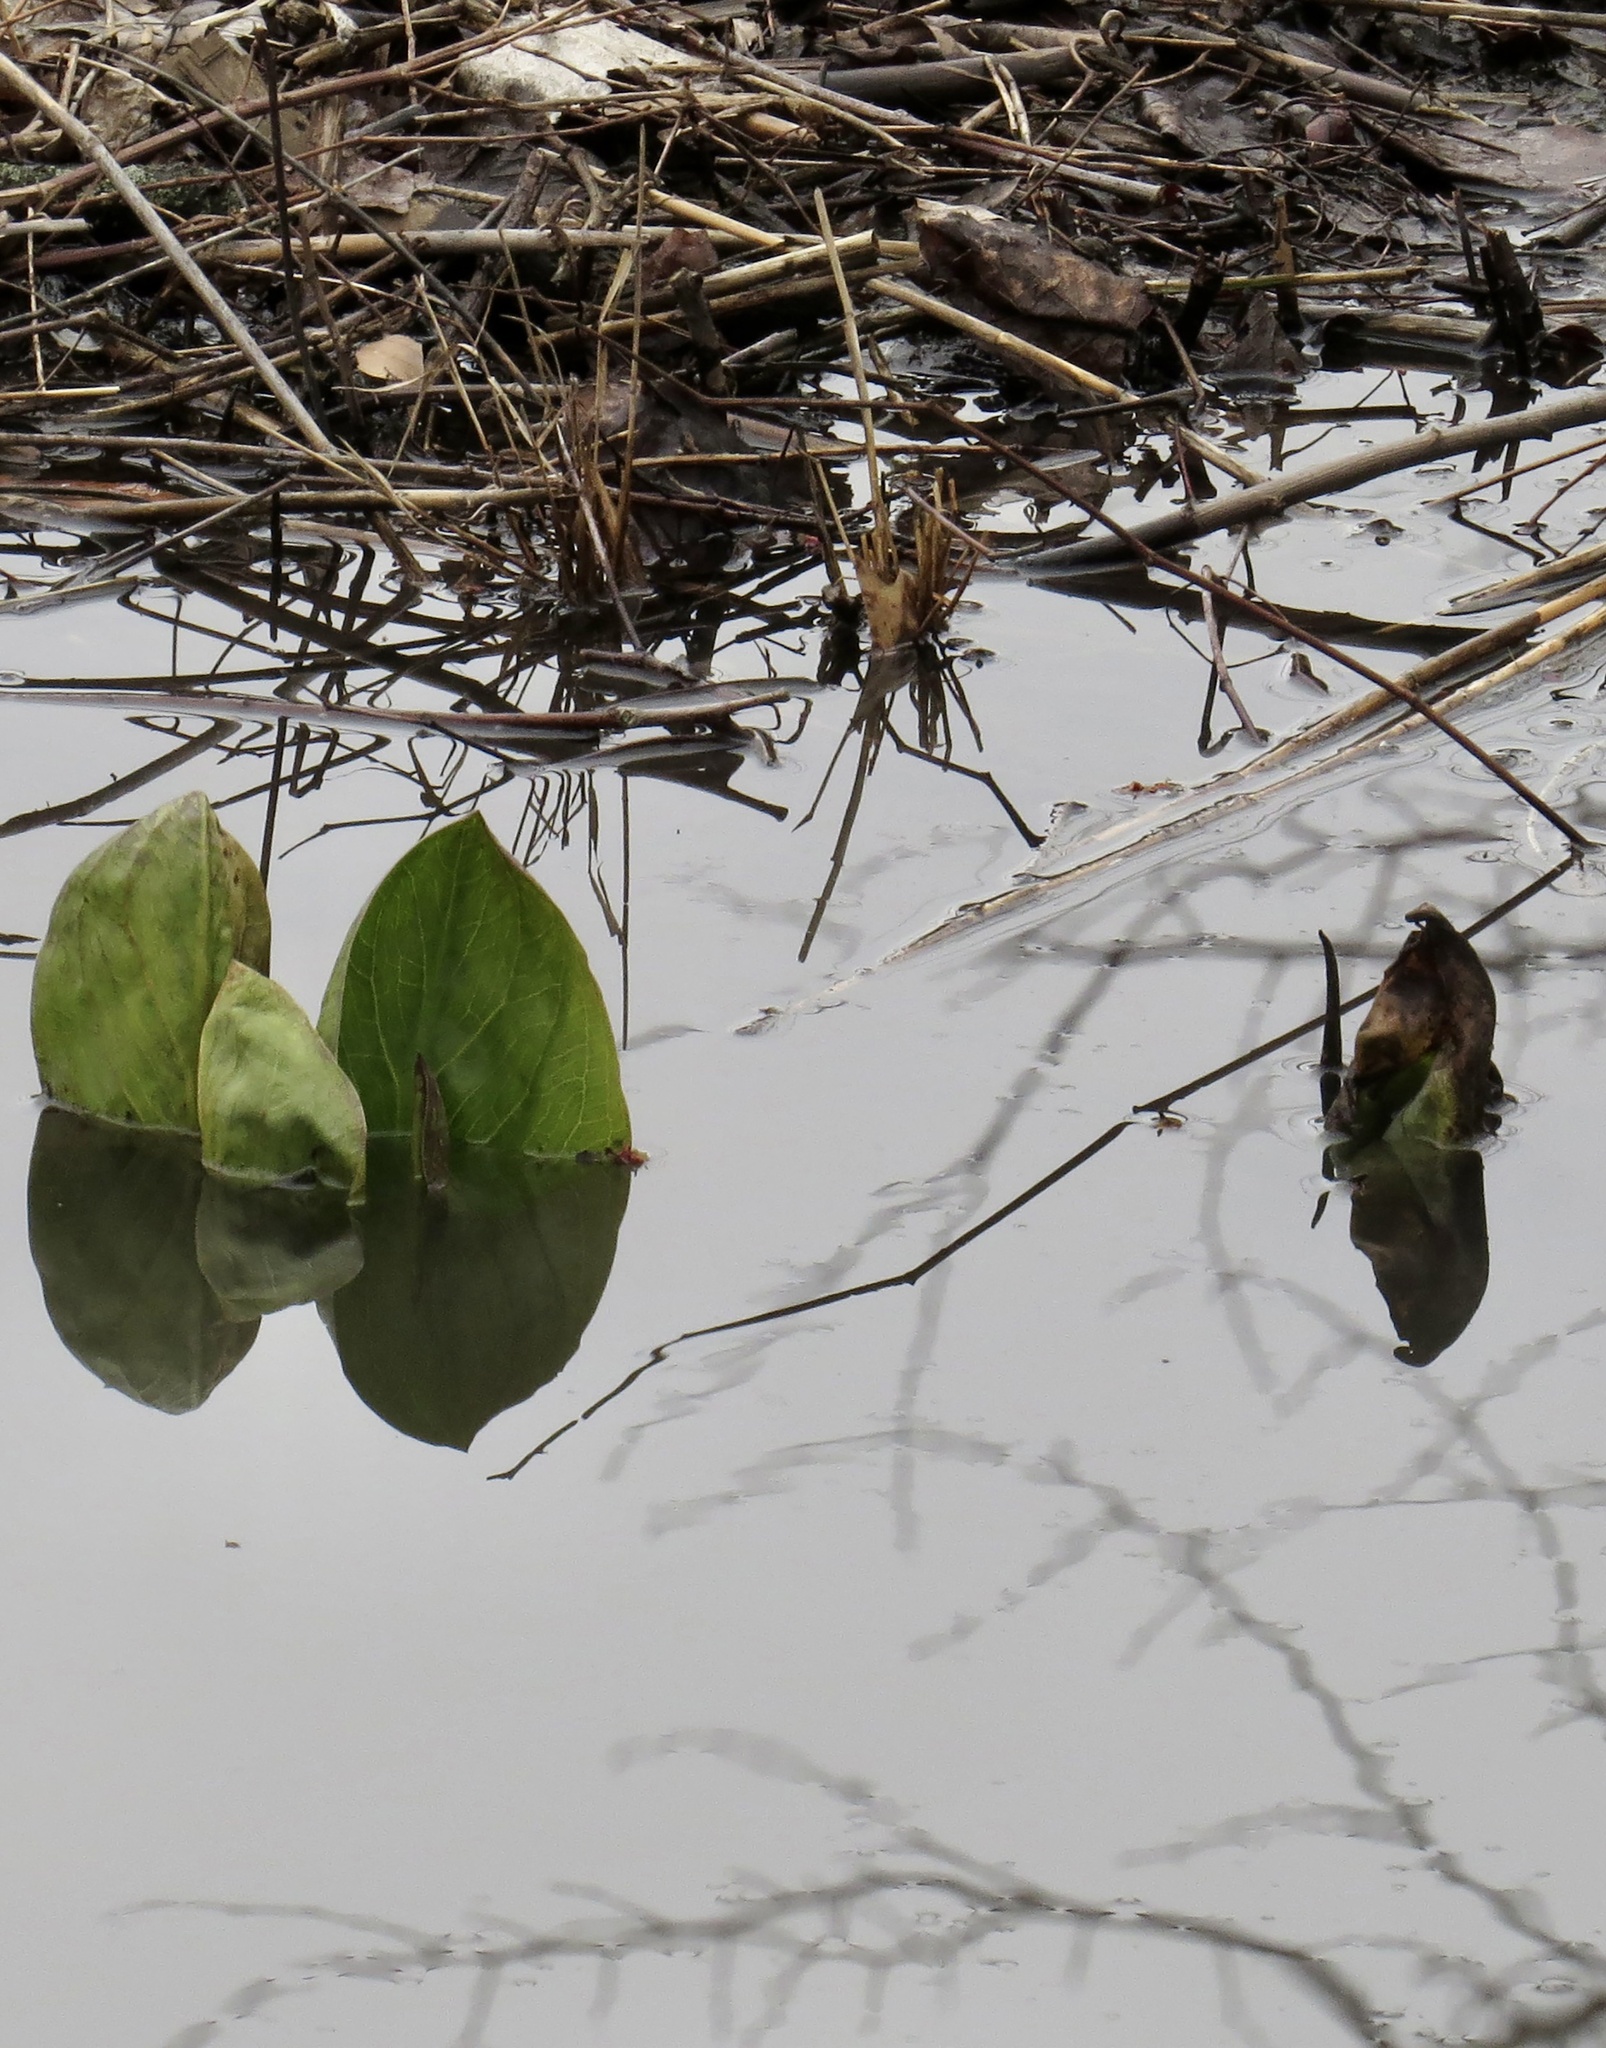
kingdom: Plantae
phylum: Tracheophyta
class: Liliopsida
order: Alismatales
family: Araceae
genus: Symplocarpus
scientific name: Symplocarpus foetidus
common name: Eastern skunk cabbage
